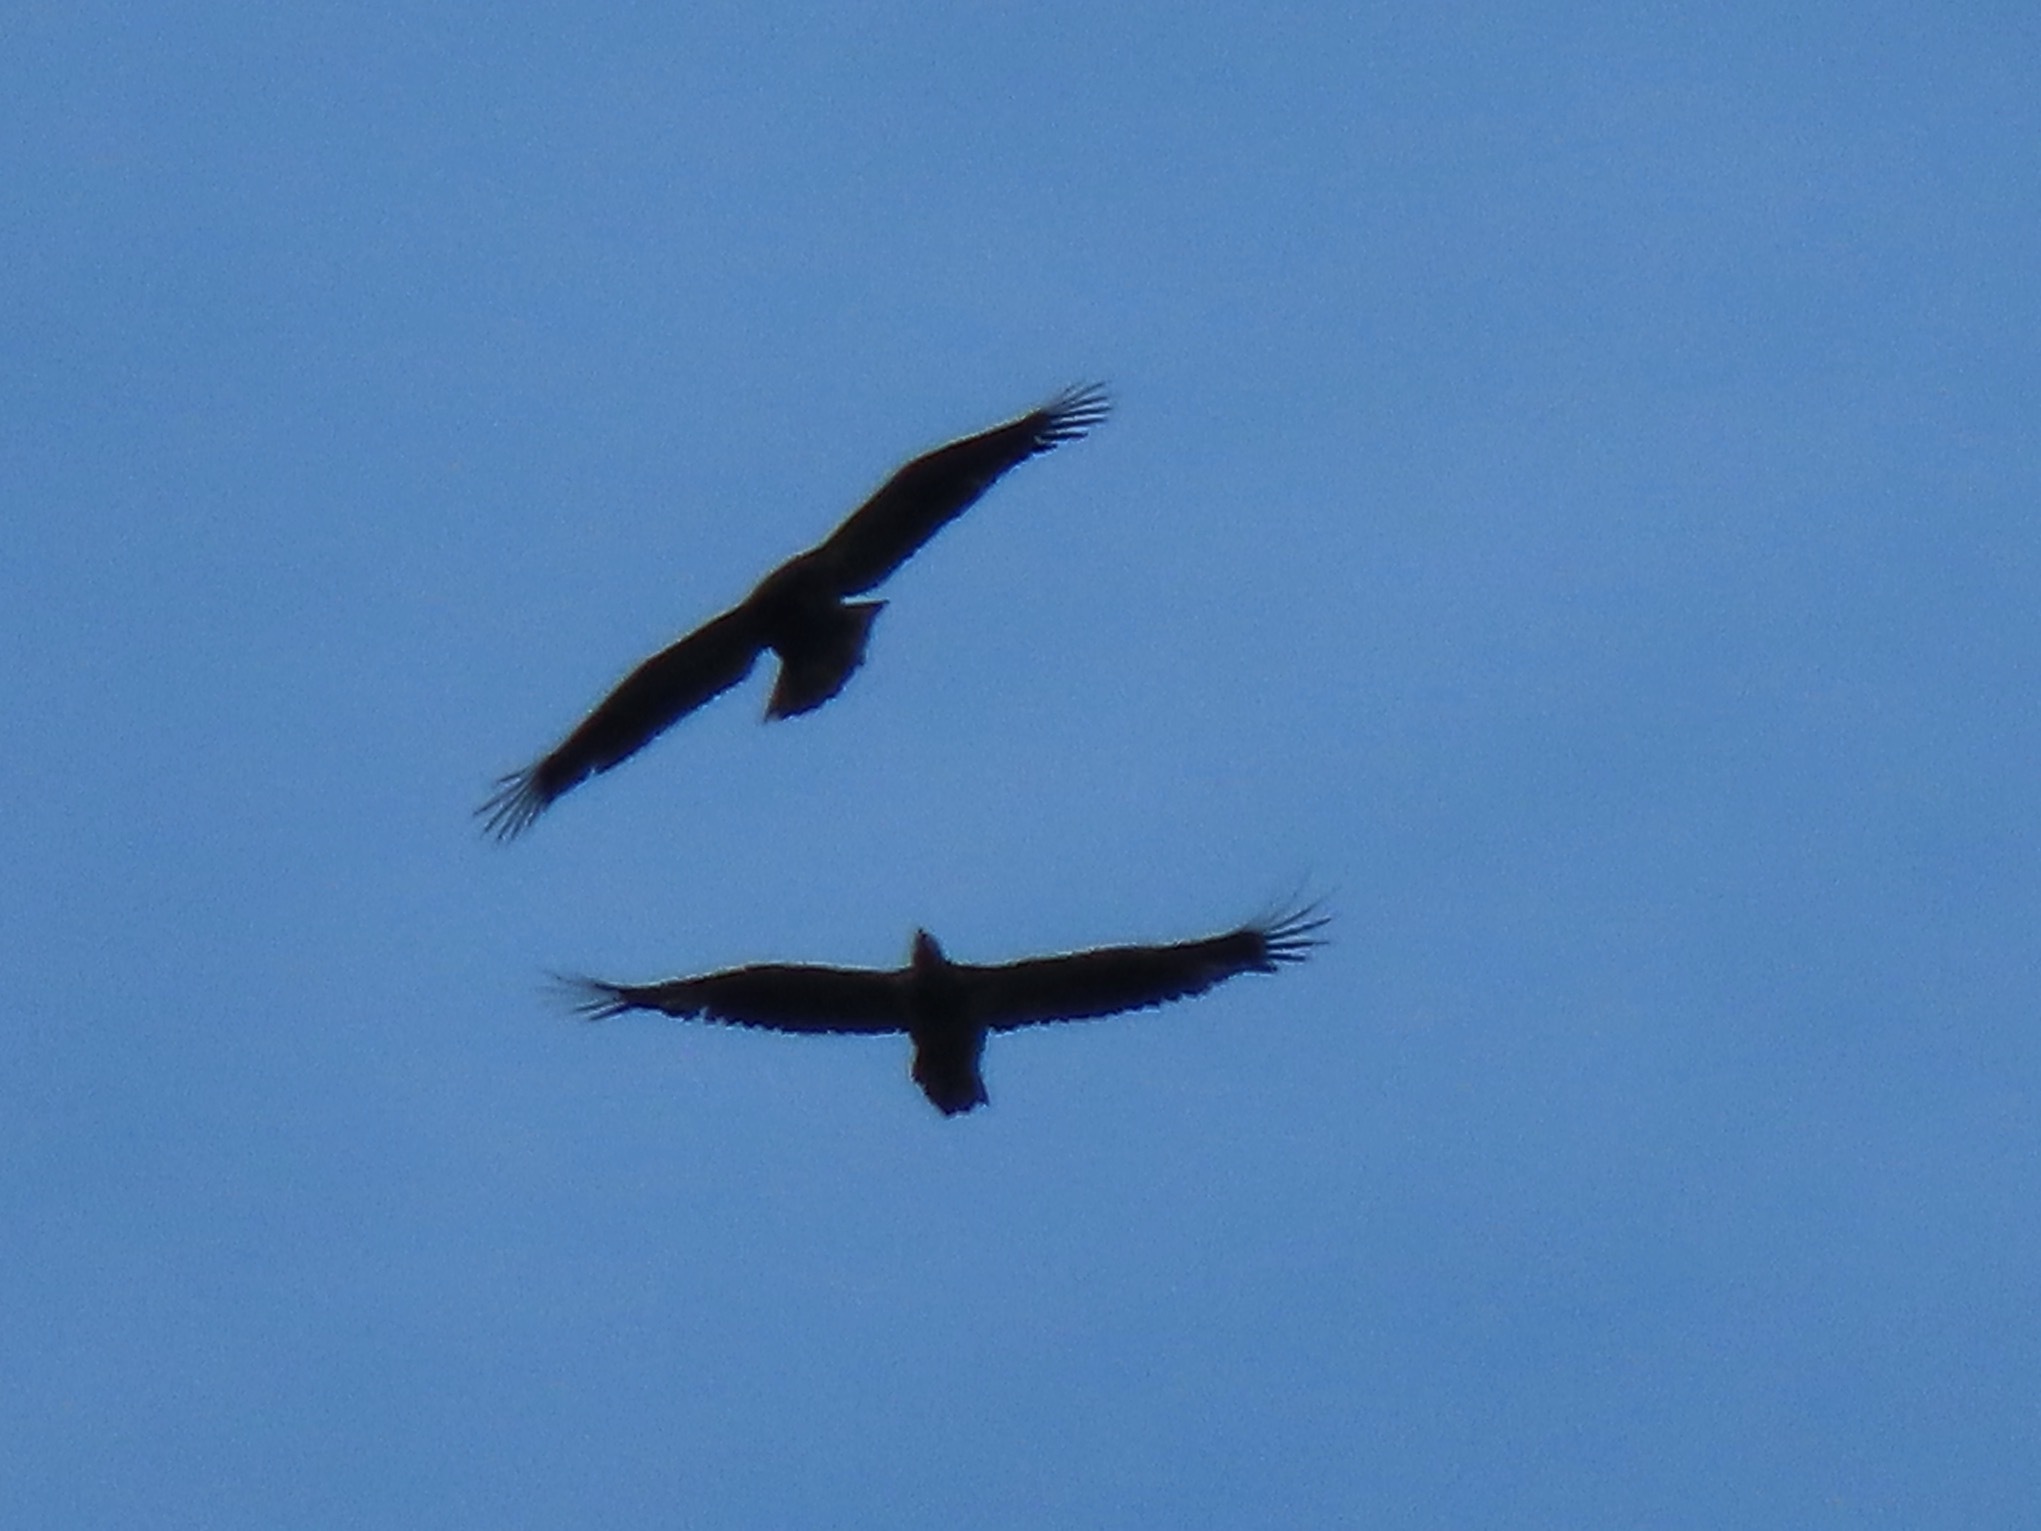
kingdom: Animalia
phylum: Chordata
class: Aves
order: Accipitriformes
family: Accipitridae
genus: Haliaeetus
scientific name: Haliaeetus leucocephalus
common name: Bald eagle
